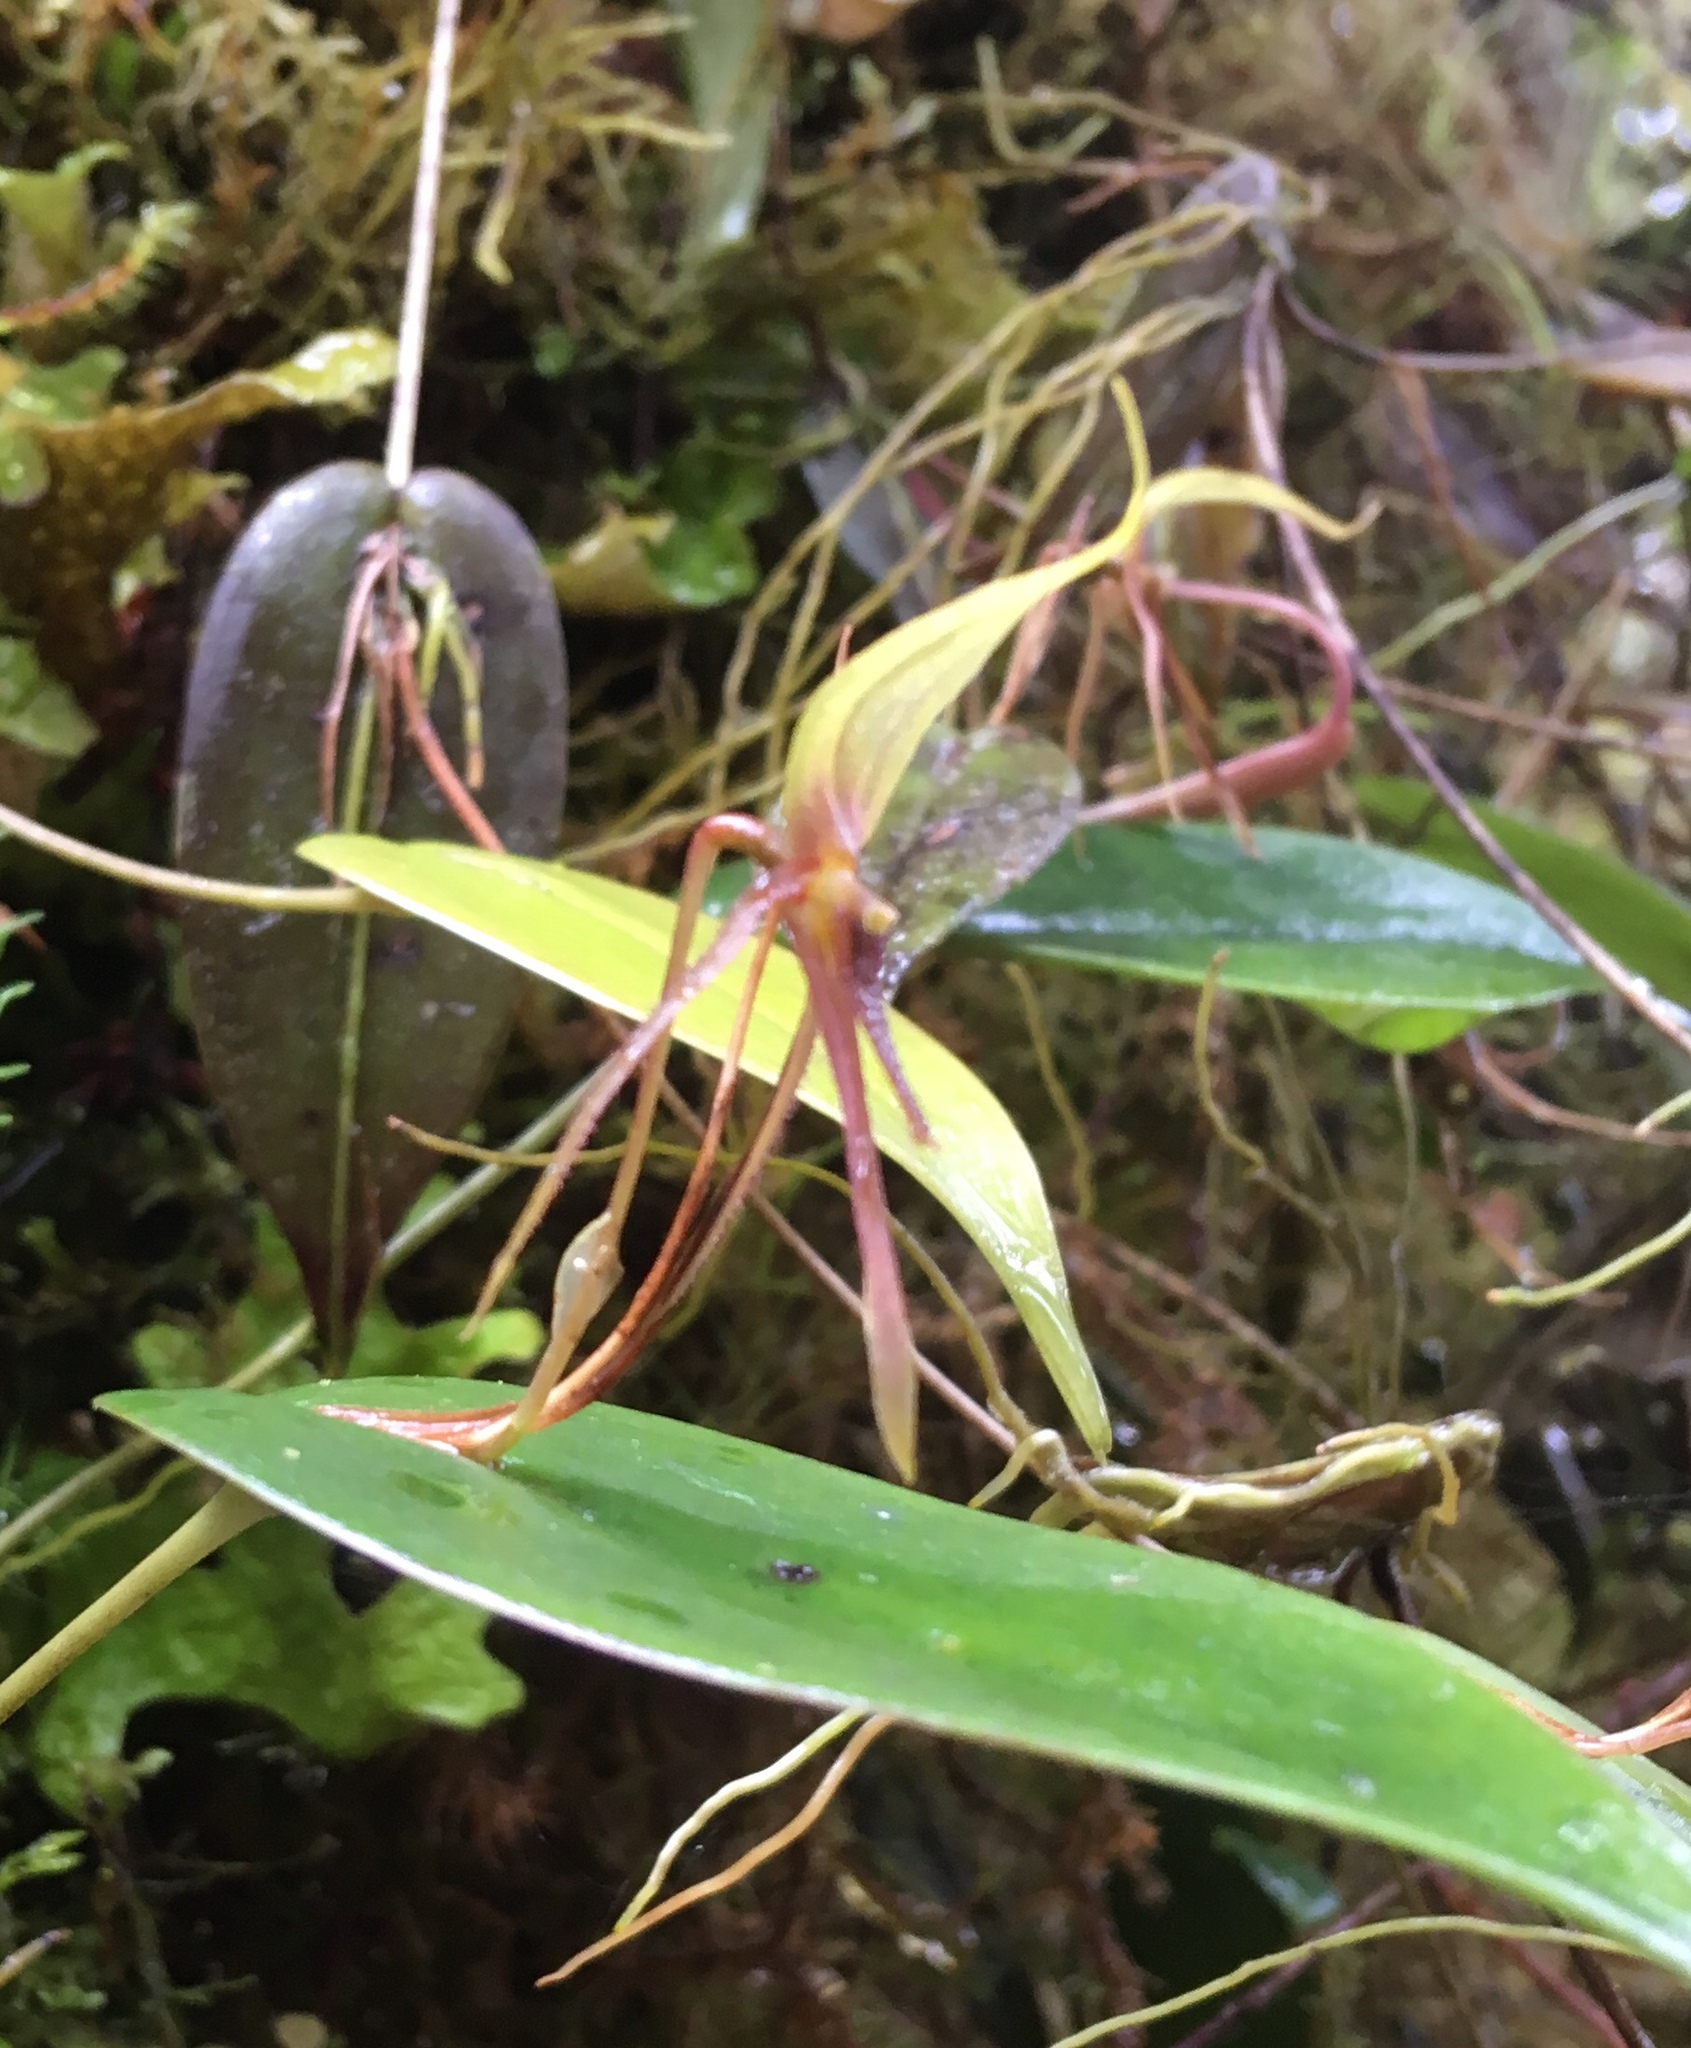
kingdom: Plantae
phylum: Tracheophyta
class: Liliopsida
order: Asparagales
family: Orchidaceae
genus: Pleurothallis
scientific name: Pleurothallis killipii
